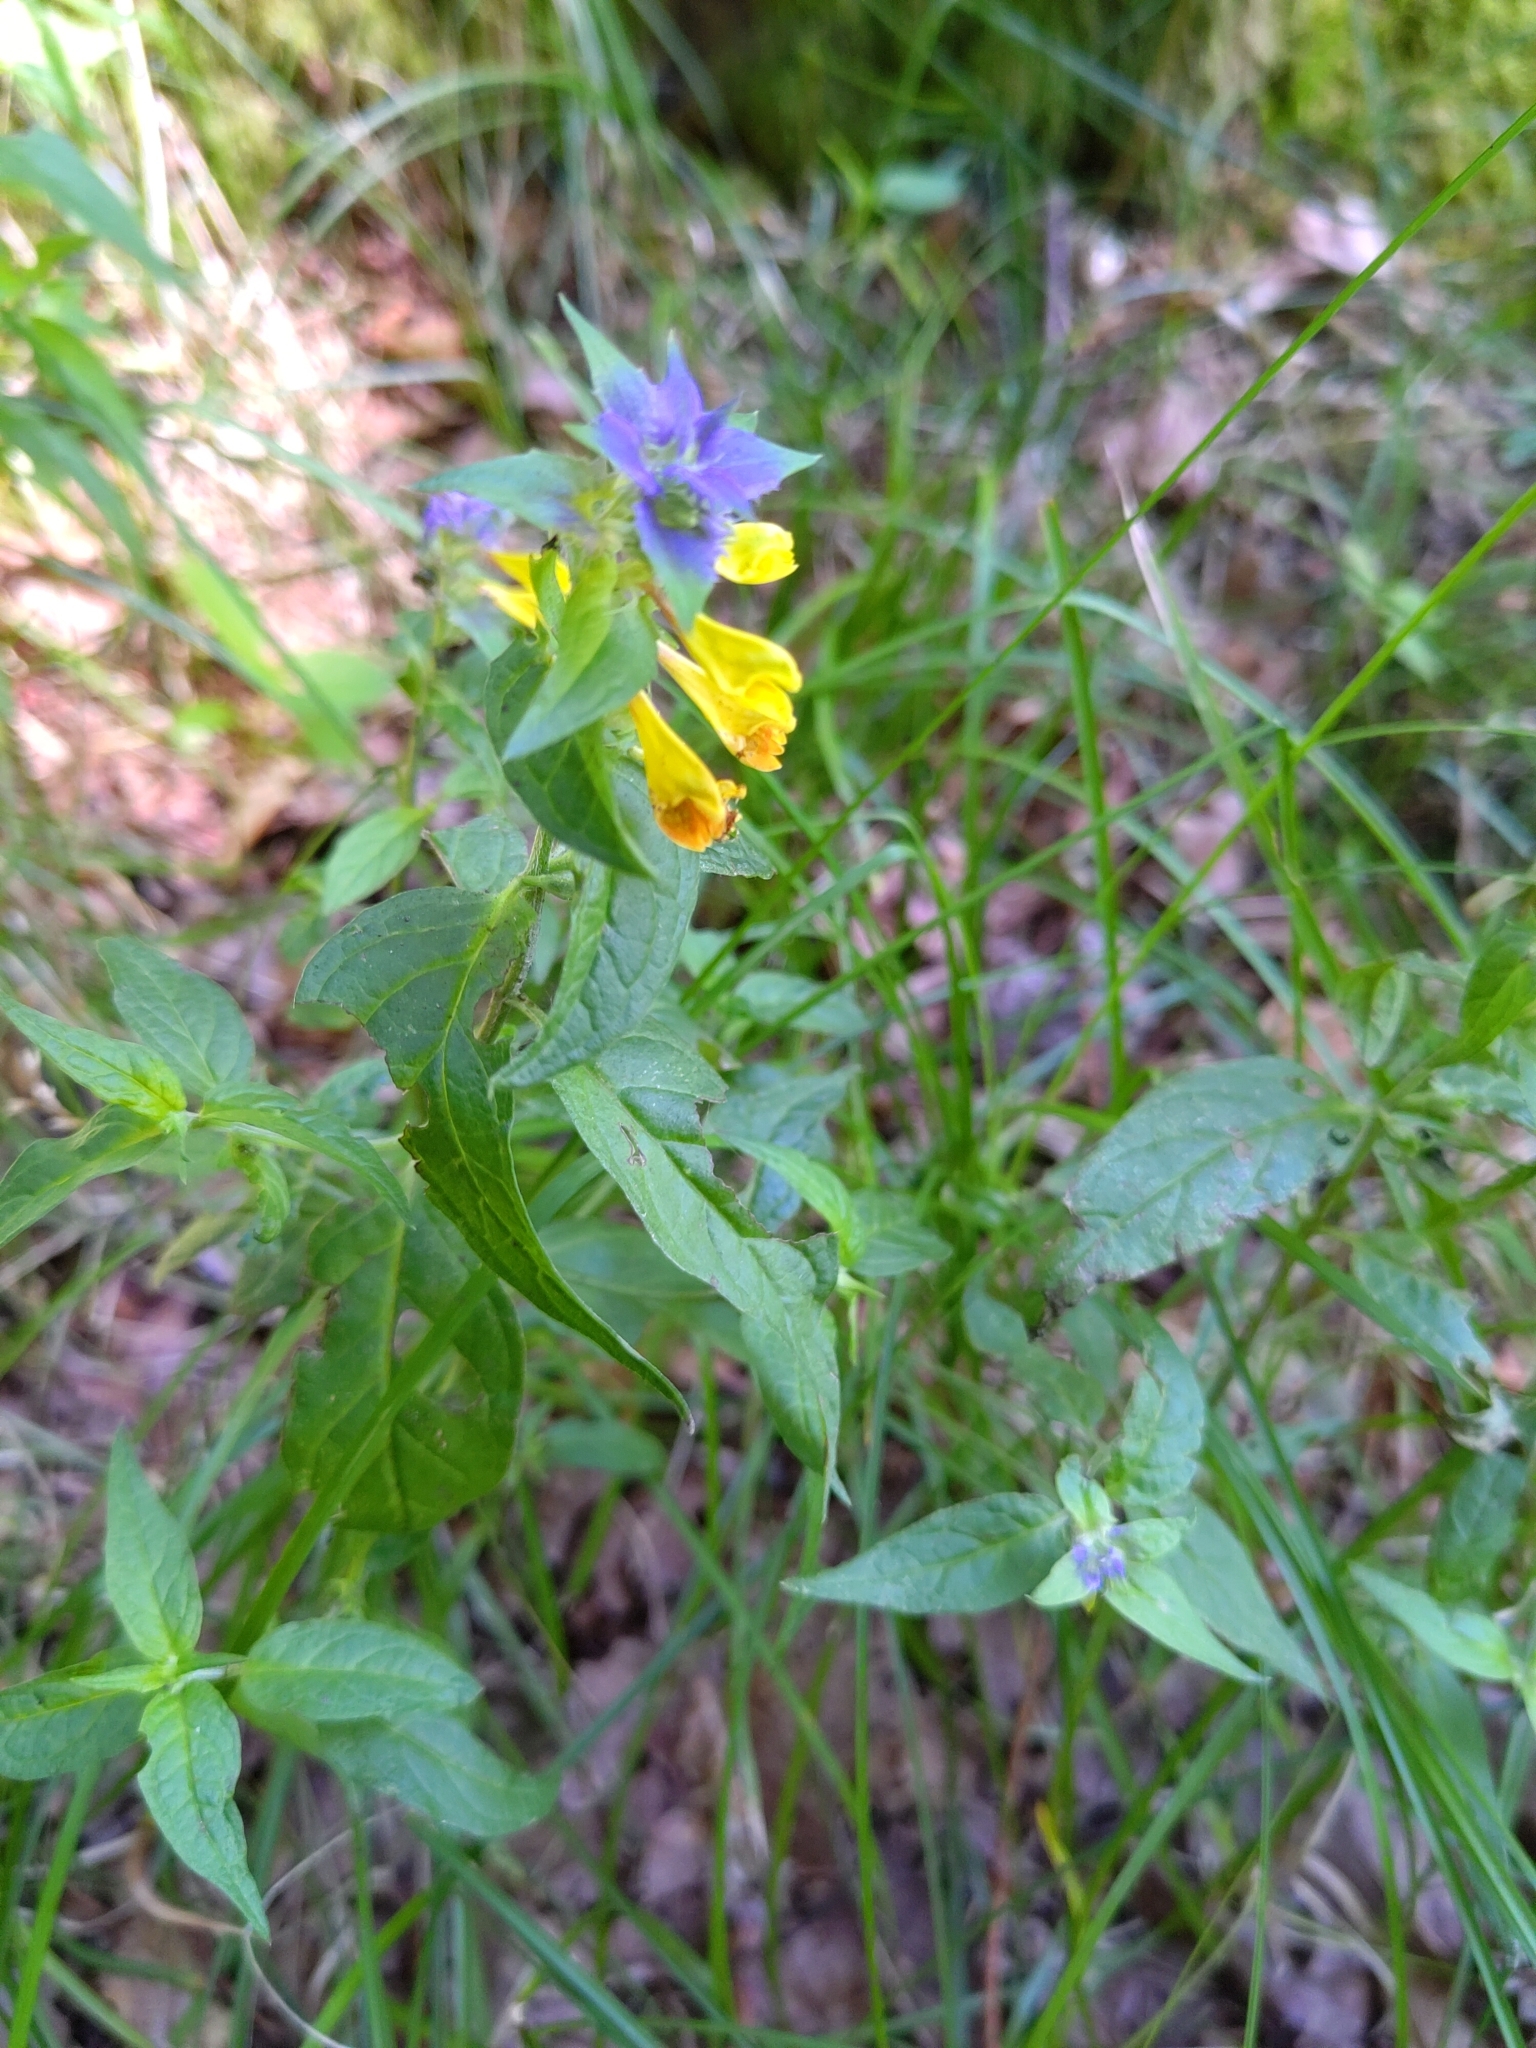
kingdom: Plantae
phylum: Tracheophyta
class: Magnoliopsida
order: Lamiales
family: Orobanchaceae
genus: Melampyrum
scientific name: Melampyrum nemorosum
